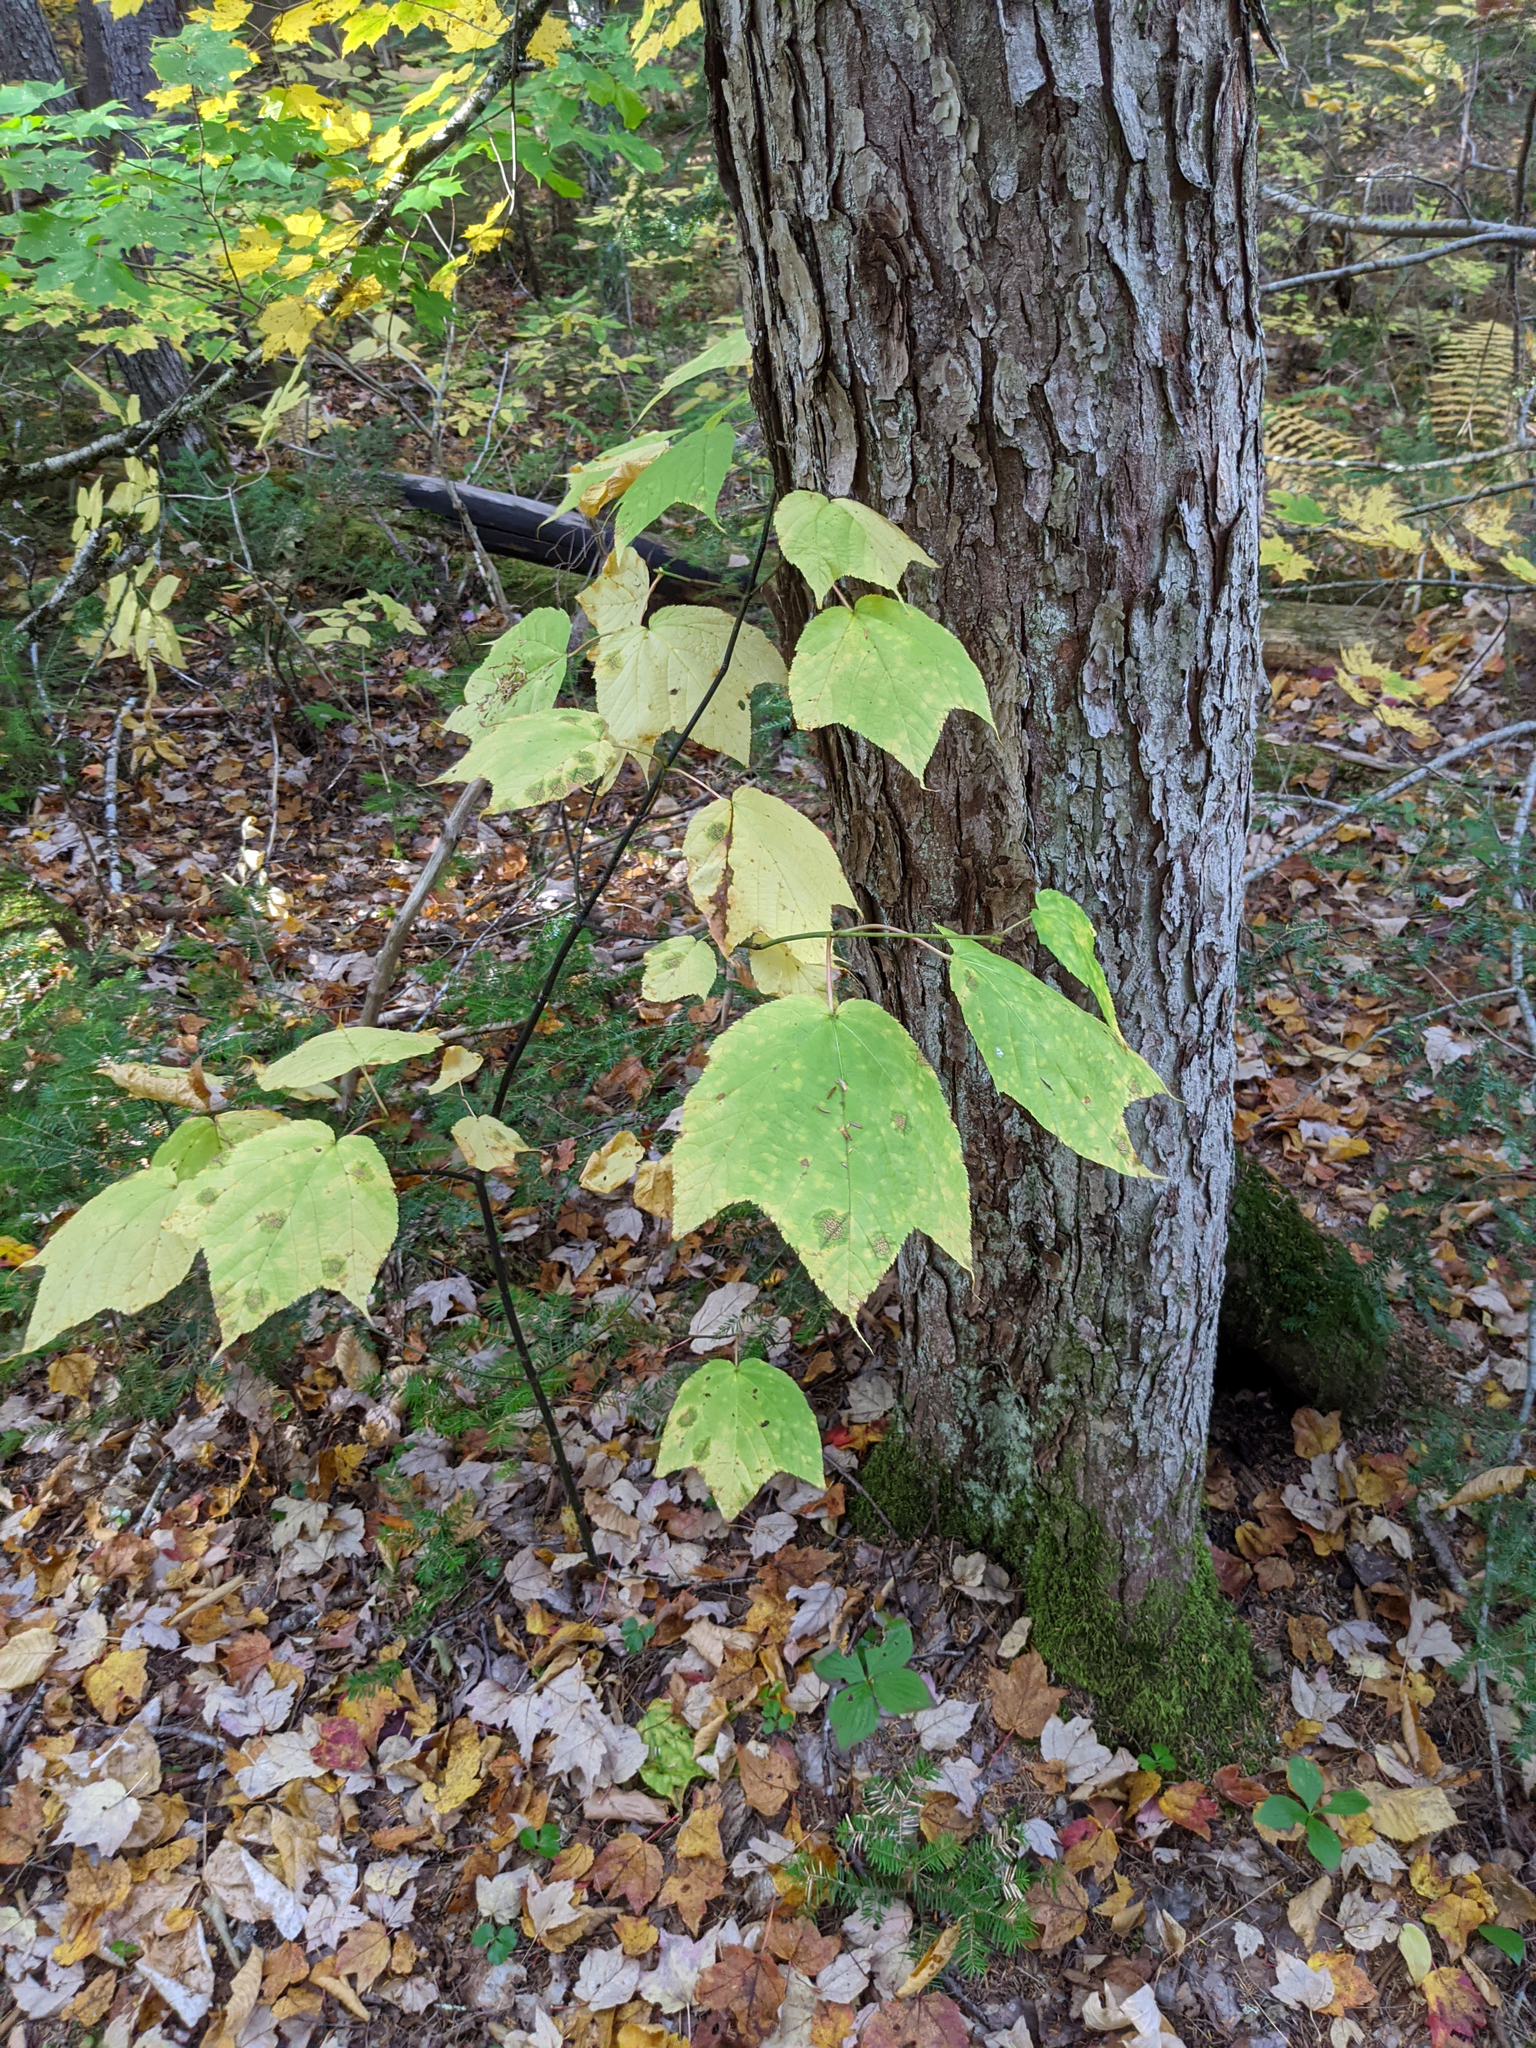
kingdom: Plantae
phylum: Tracheophyta
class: Magnoliopsida
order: Sapindales
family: Sapindaceae
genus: Acer
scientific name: Acer pensylvanicum
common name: Moosewood
